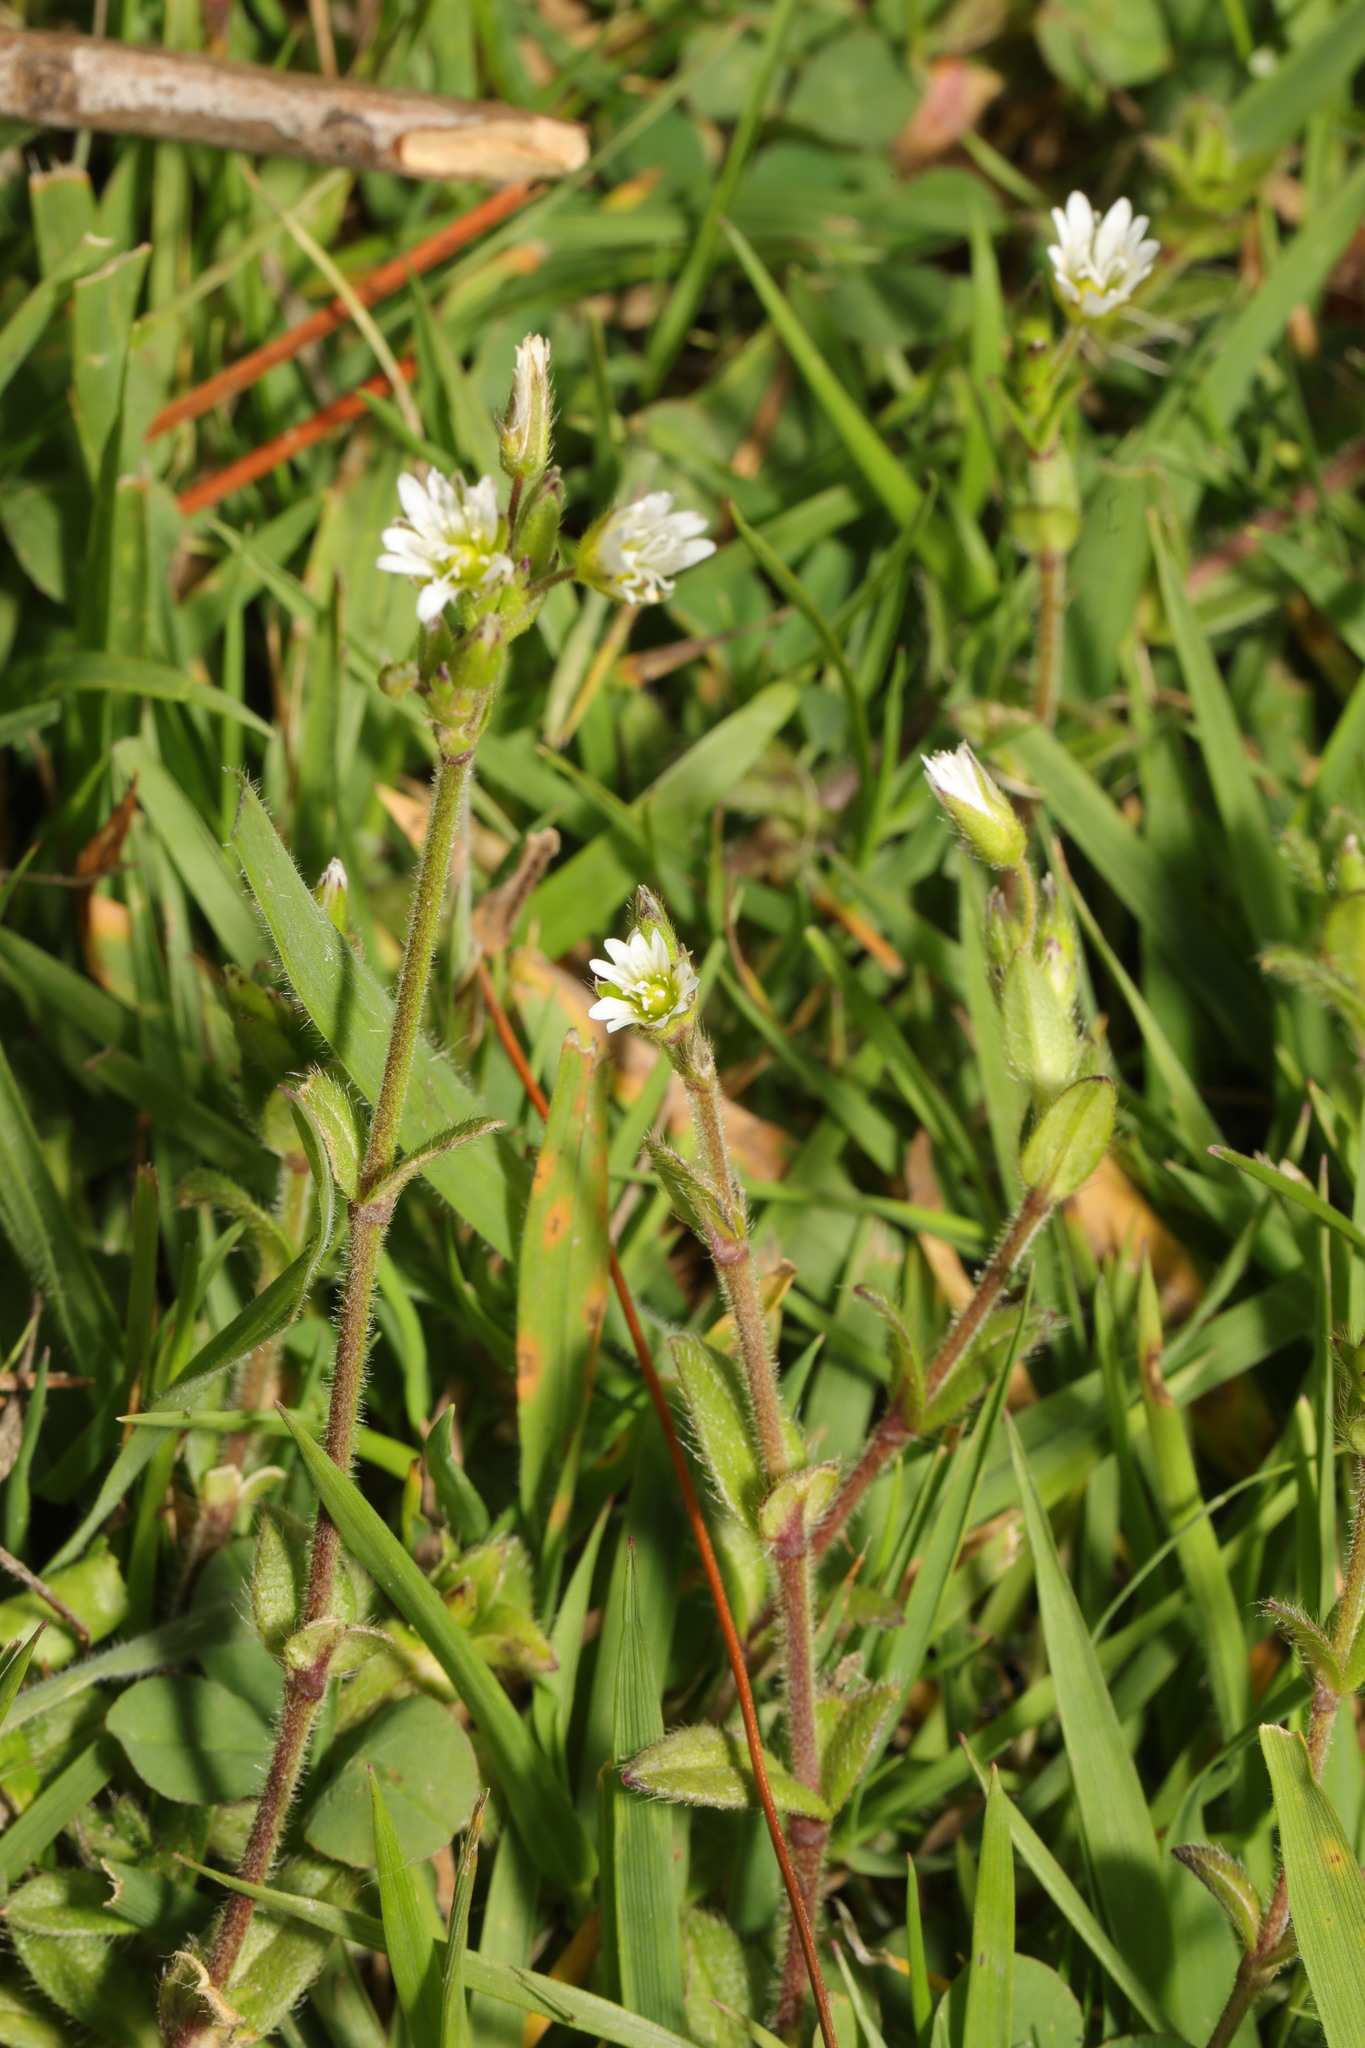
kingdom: Plantae
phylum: Tracheophyta
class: Magnoliopsida
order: Caryophyllales
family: Caryophyllaceae
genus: Cerastium
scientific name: Cerastium fontanum
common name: Common mouse-ear
